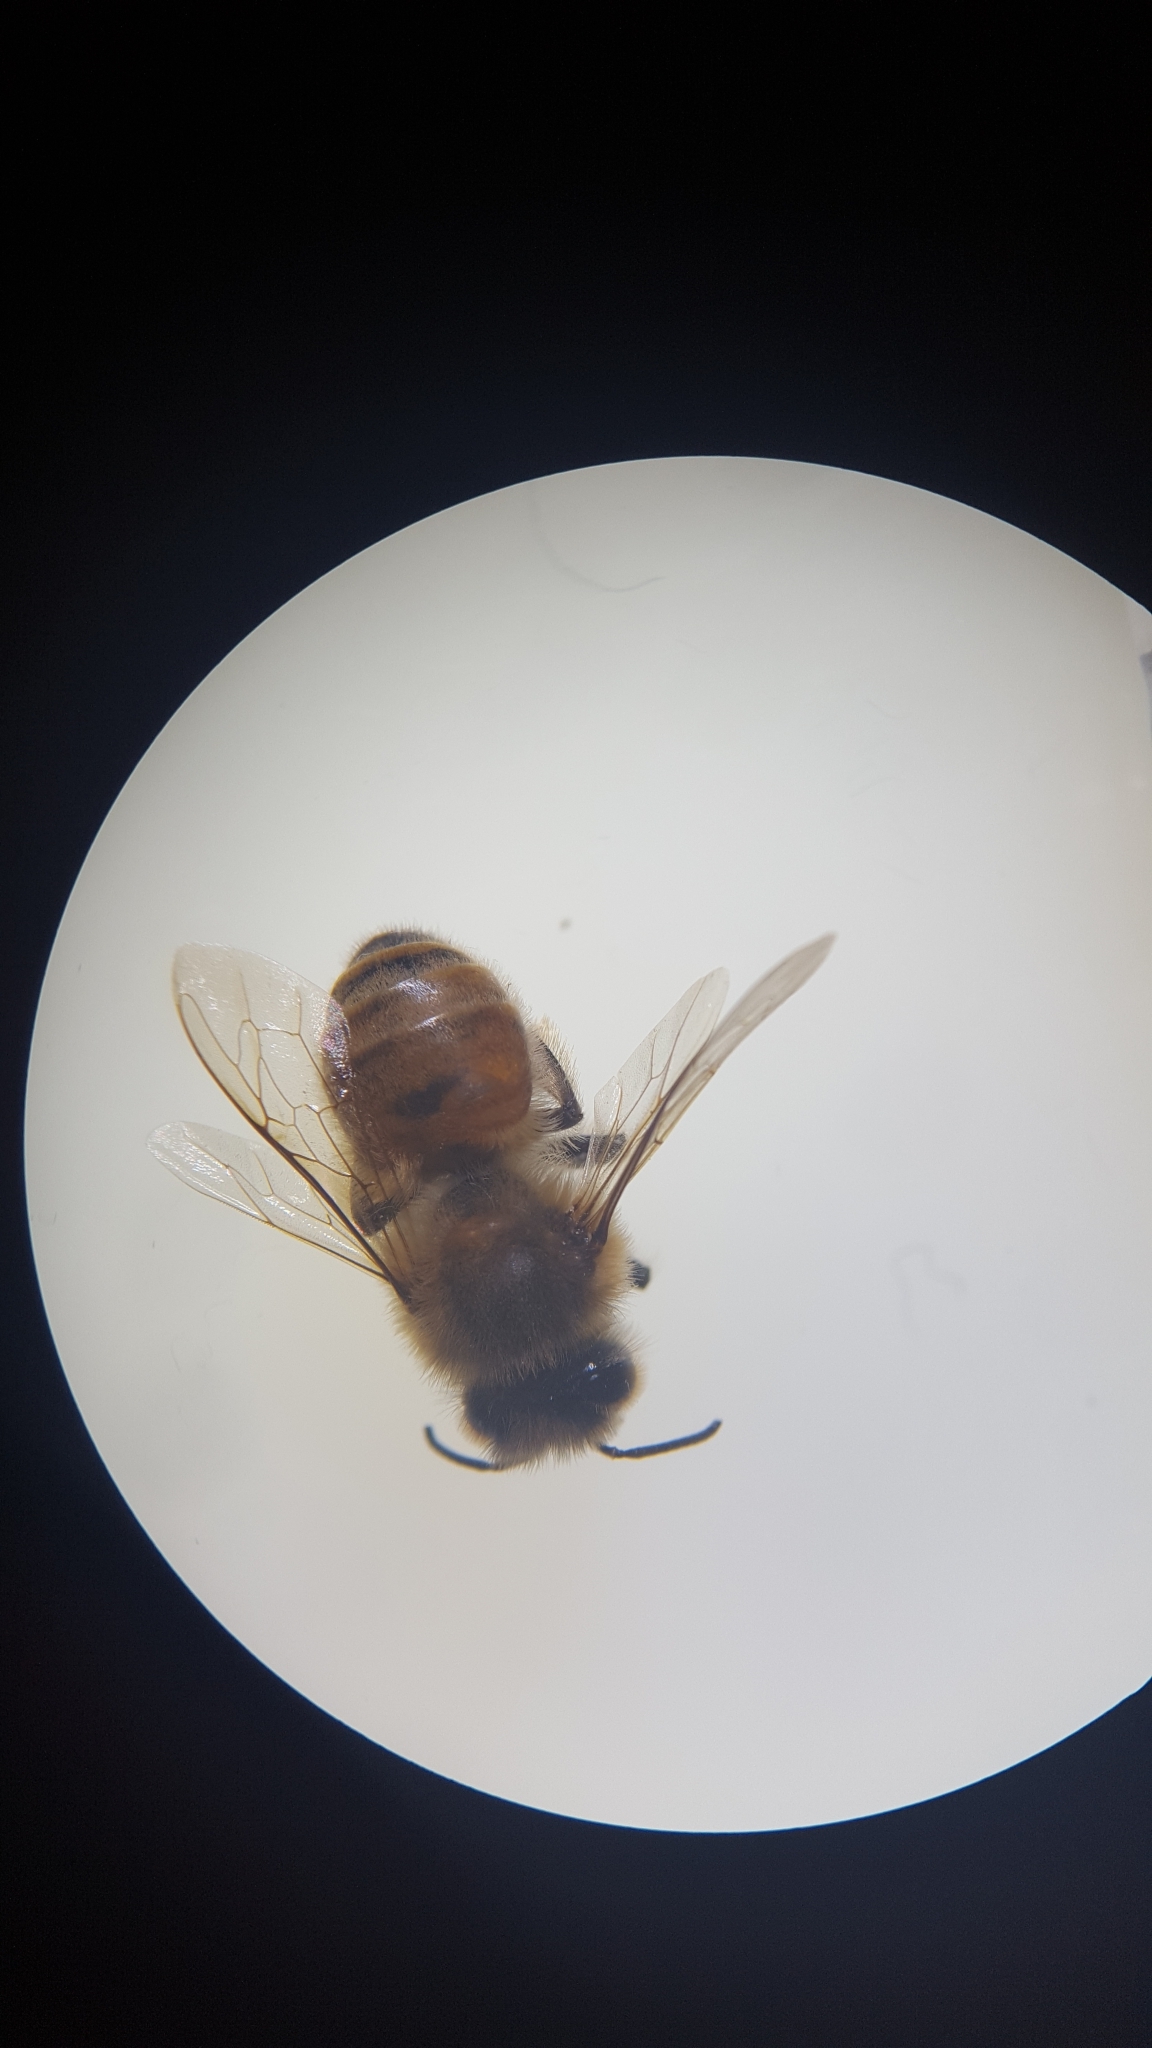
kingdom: Animalia
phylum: Arthropoda
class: Insecta
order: Hymenoptera
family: Apidae
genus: Apis
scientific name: Apis mellifera
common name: Honey bee
